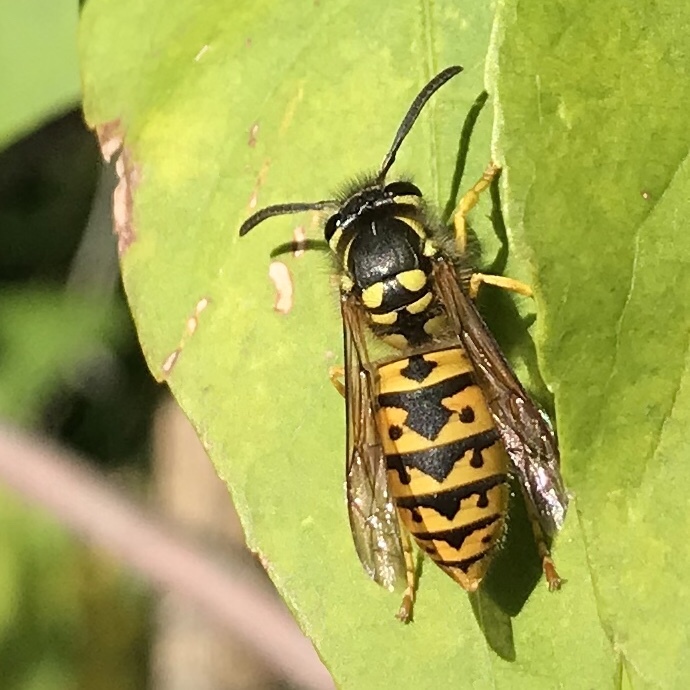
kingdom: Animalia
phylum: Arthropoda
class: Insecta
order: Hymenoptera
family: Vespidae
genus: Vespula
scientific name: Vespula germanica
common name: German wasp
